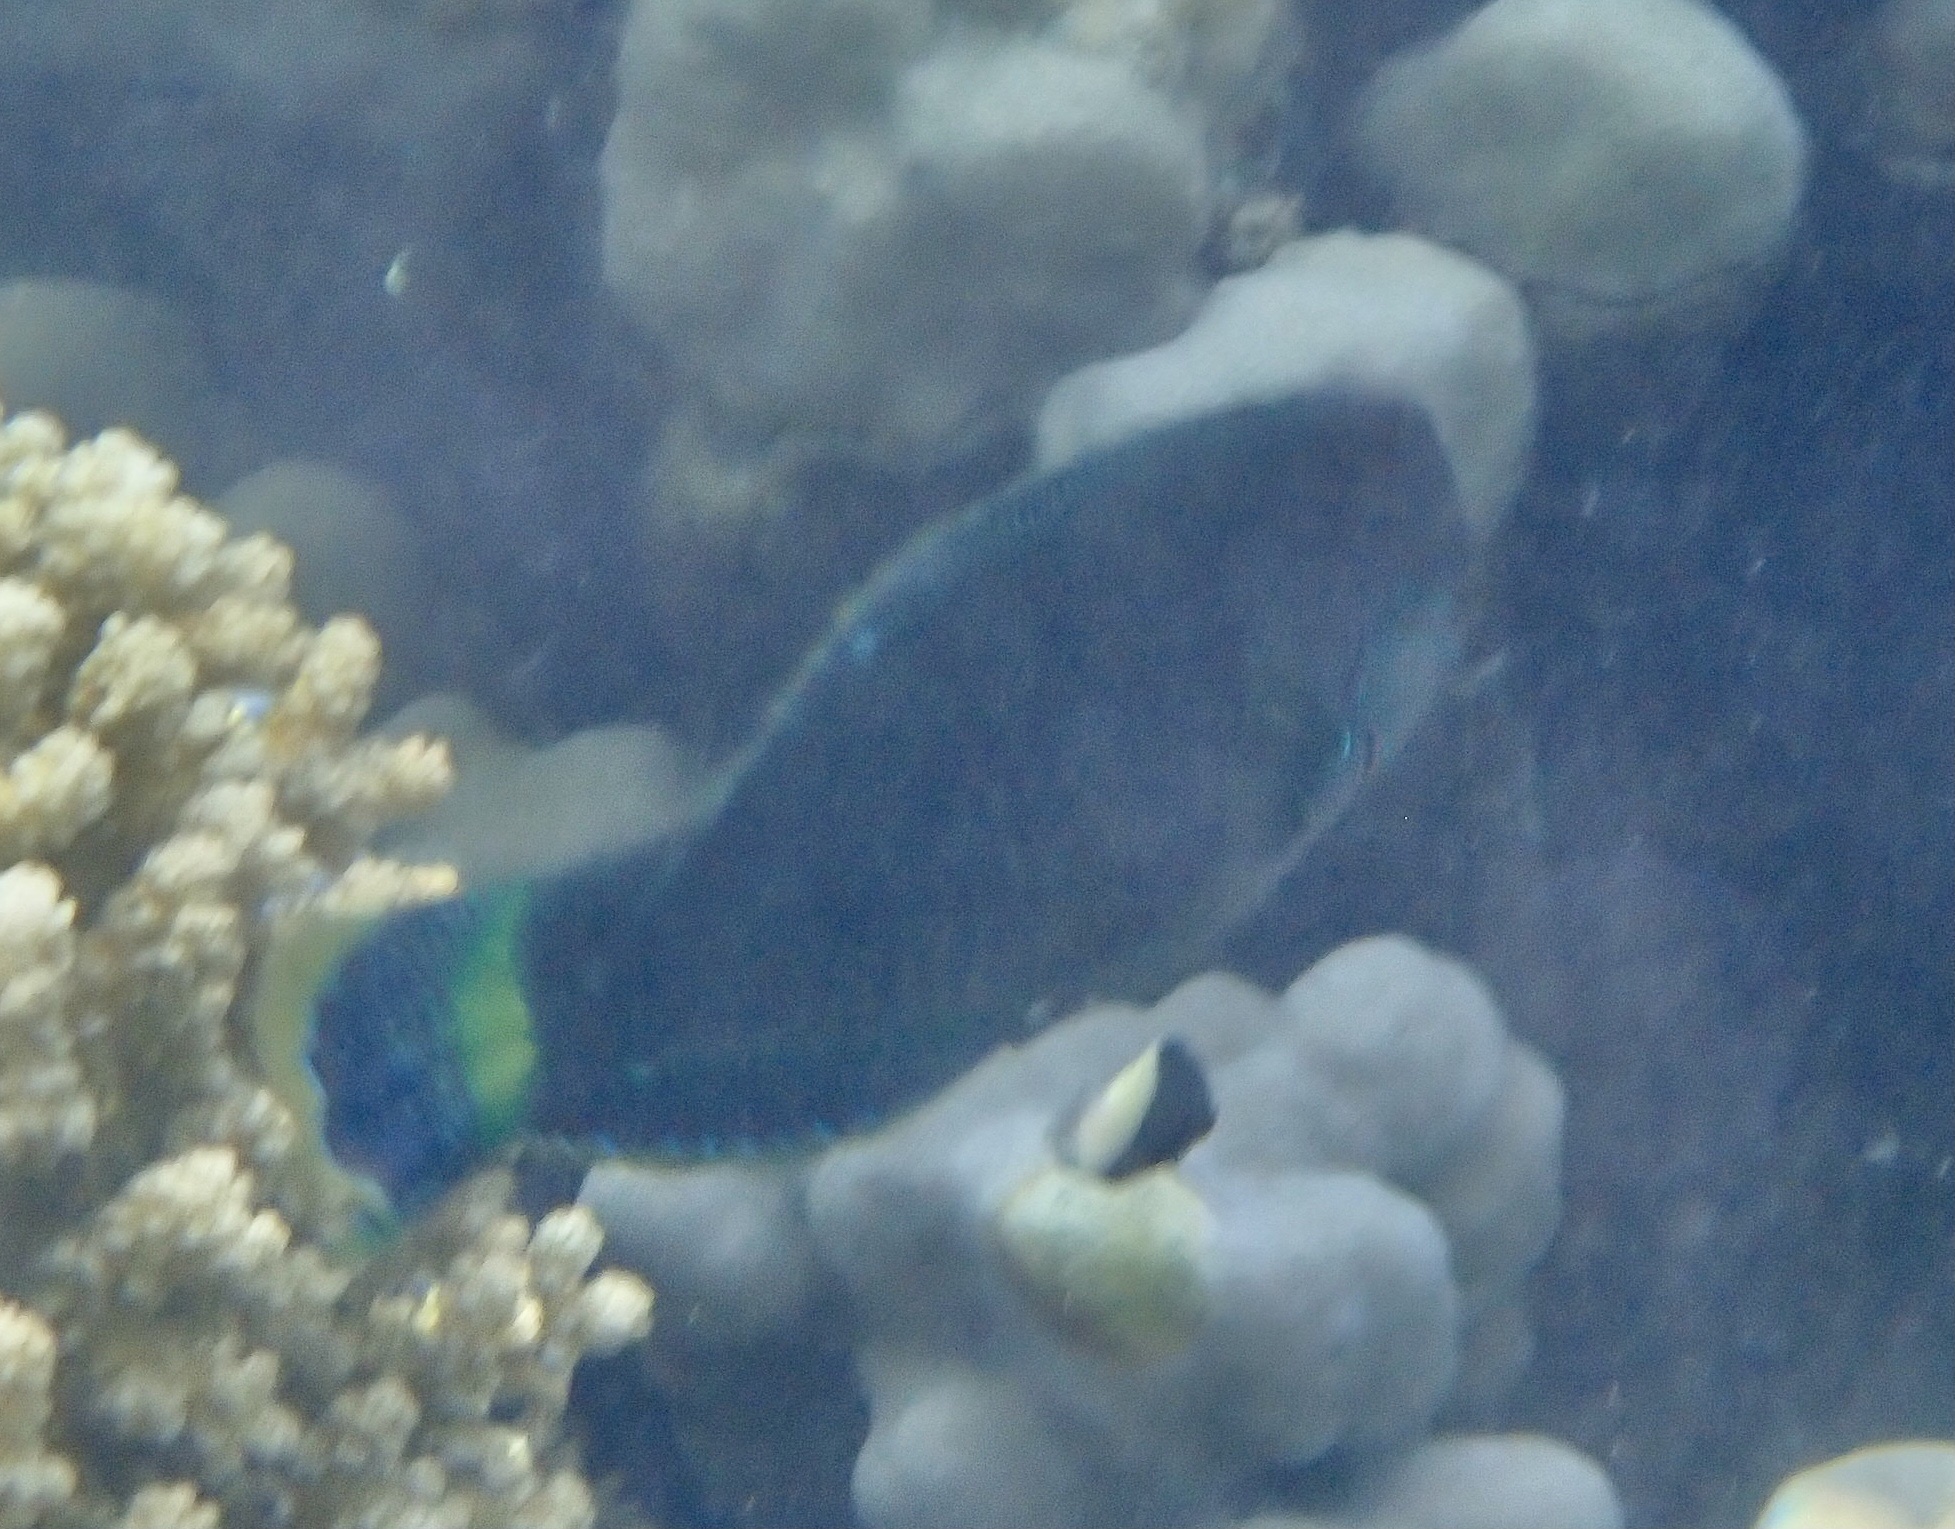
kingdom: Animalia
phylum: Chordata
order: Perciformes
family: Labridae
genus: Halichoeres
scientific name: Halichoeres marginatus
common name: Dusky wrasse
